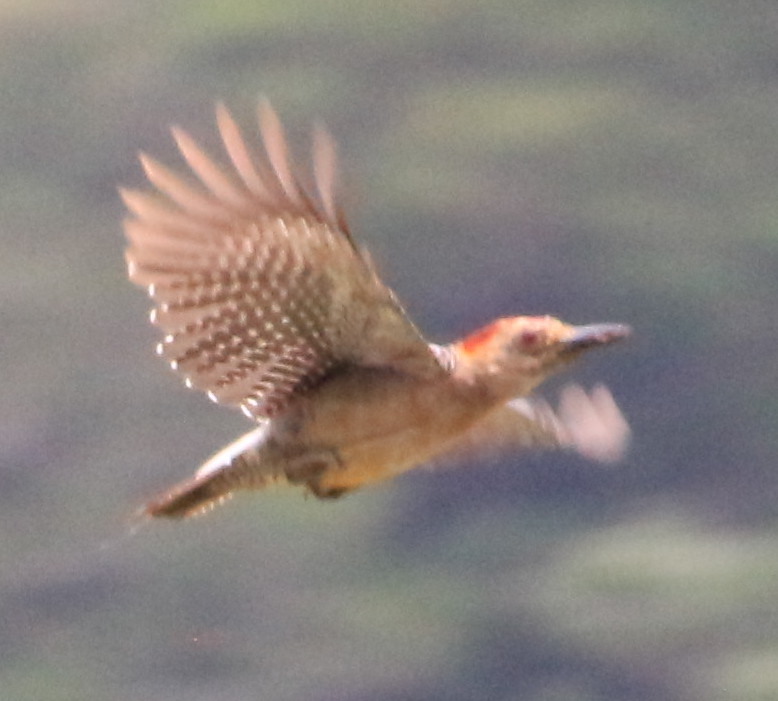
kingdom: Animalia
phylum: Chordata
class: Aves
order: Piciformes
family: Picidae
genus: Melanerpes
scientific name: Melanerpes aurifrons
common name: Golden-fronted woodpecker
